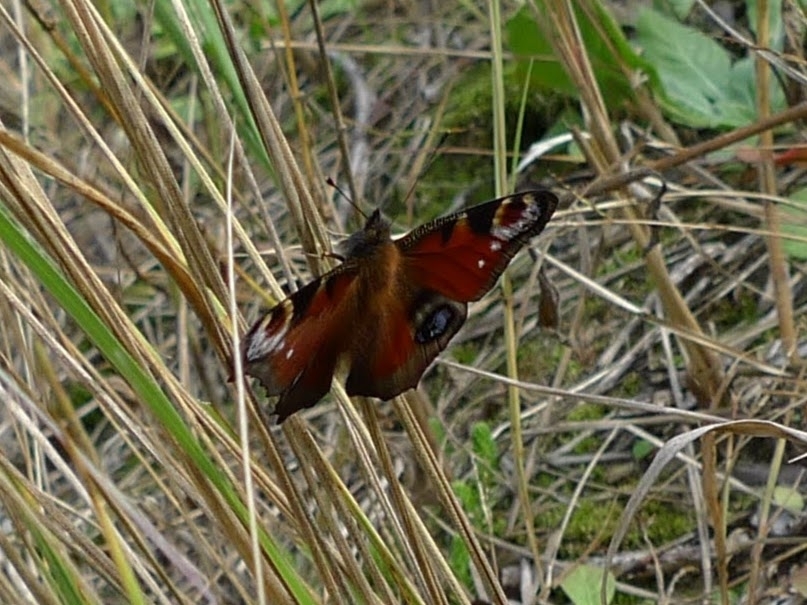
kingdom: Animalia
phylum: Arthropoda
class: Insecta
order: Lepidoptera
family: Nymphalidae
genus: Aglais
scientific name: Aglais io
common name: Peacock
